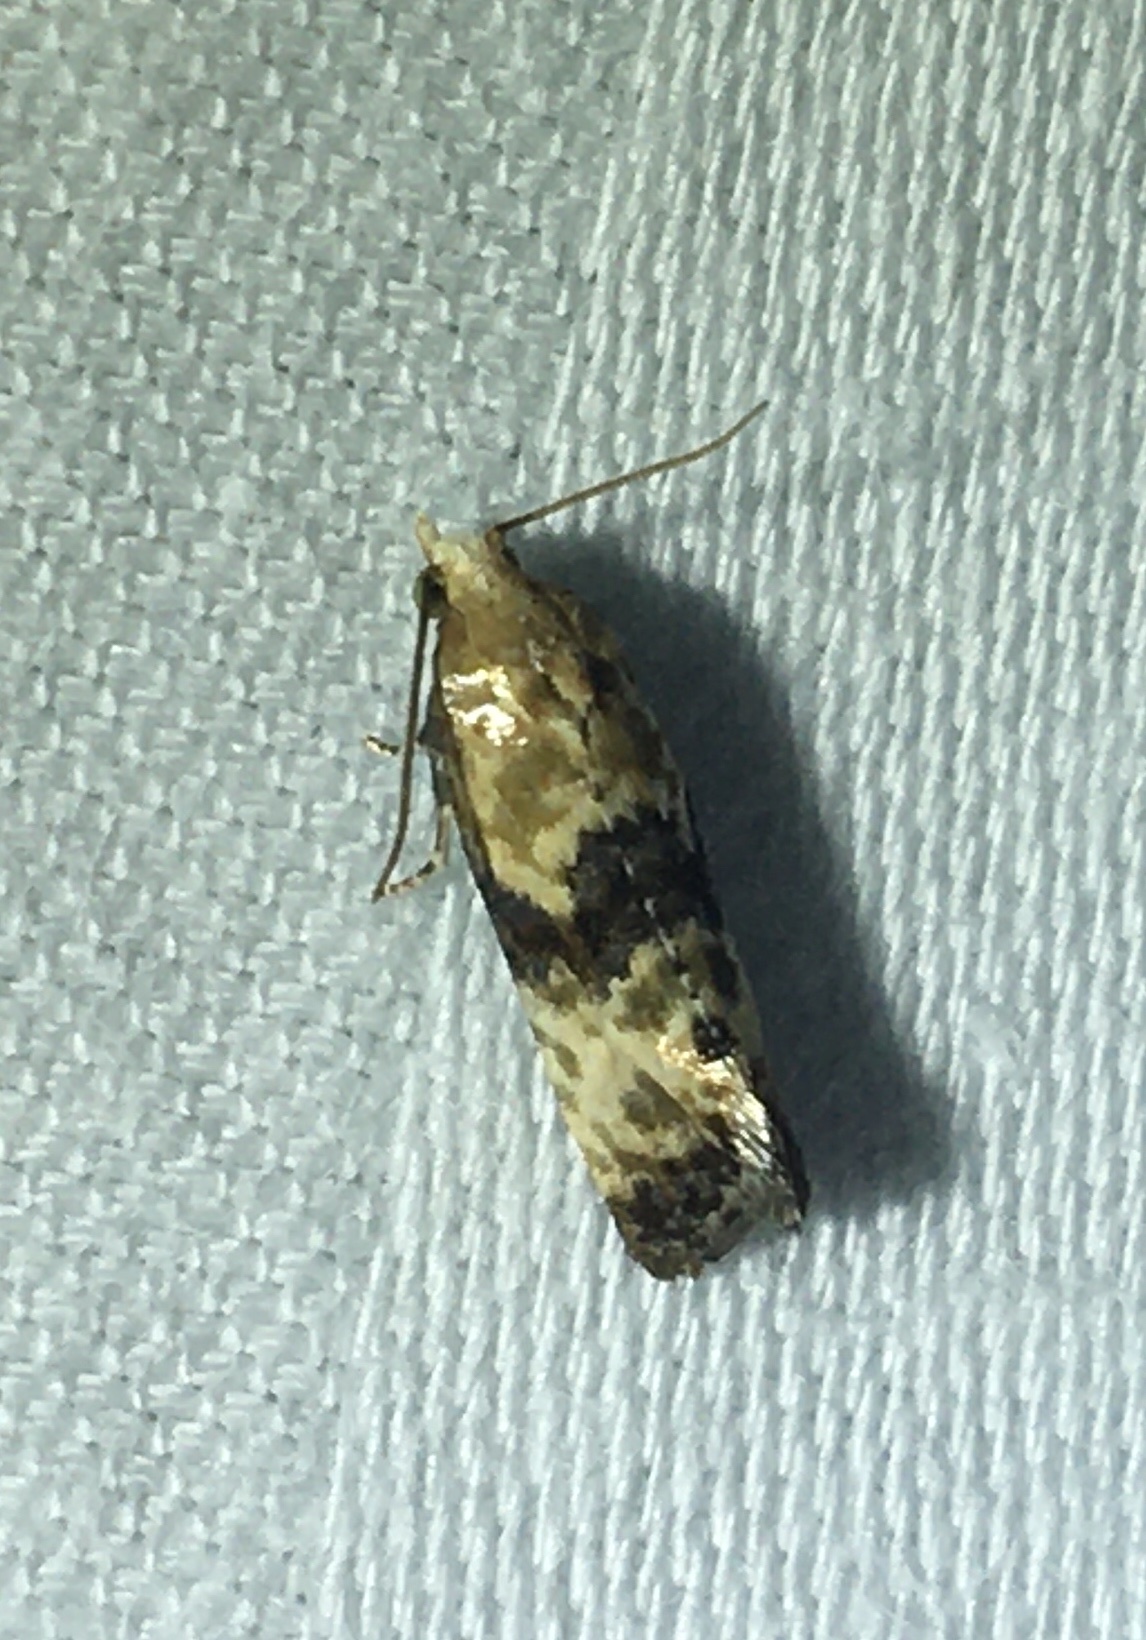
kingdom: Animalia
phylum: Arthropoda
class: Insecta
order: Lepidoptera
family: Tortricidae
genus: Eupoecilia
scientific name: Eupoecilia angustana
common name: Marbled conch
